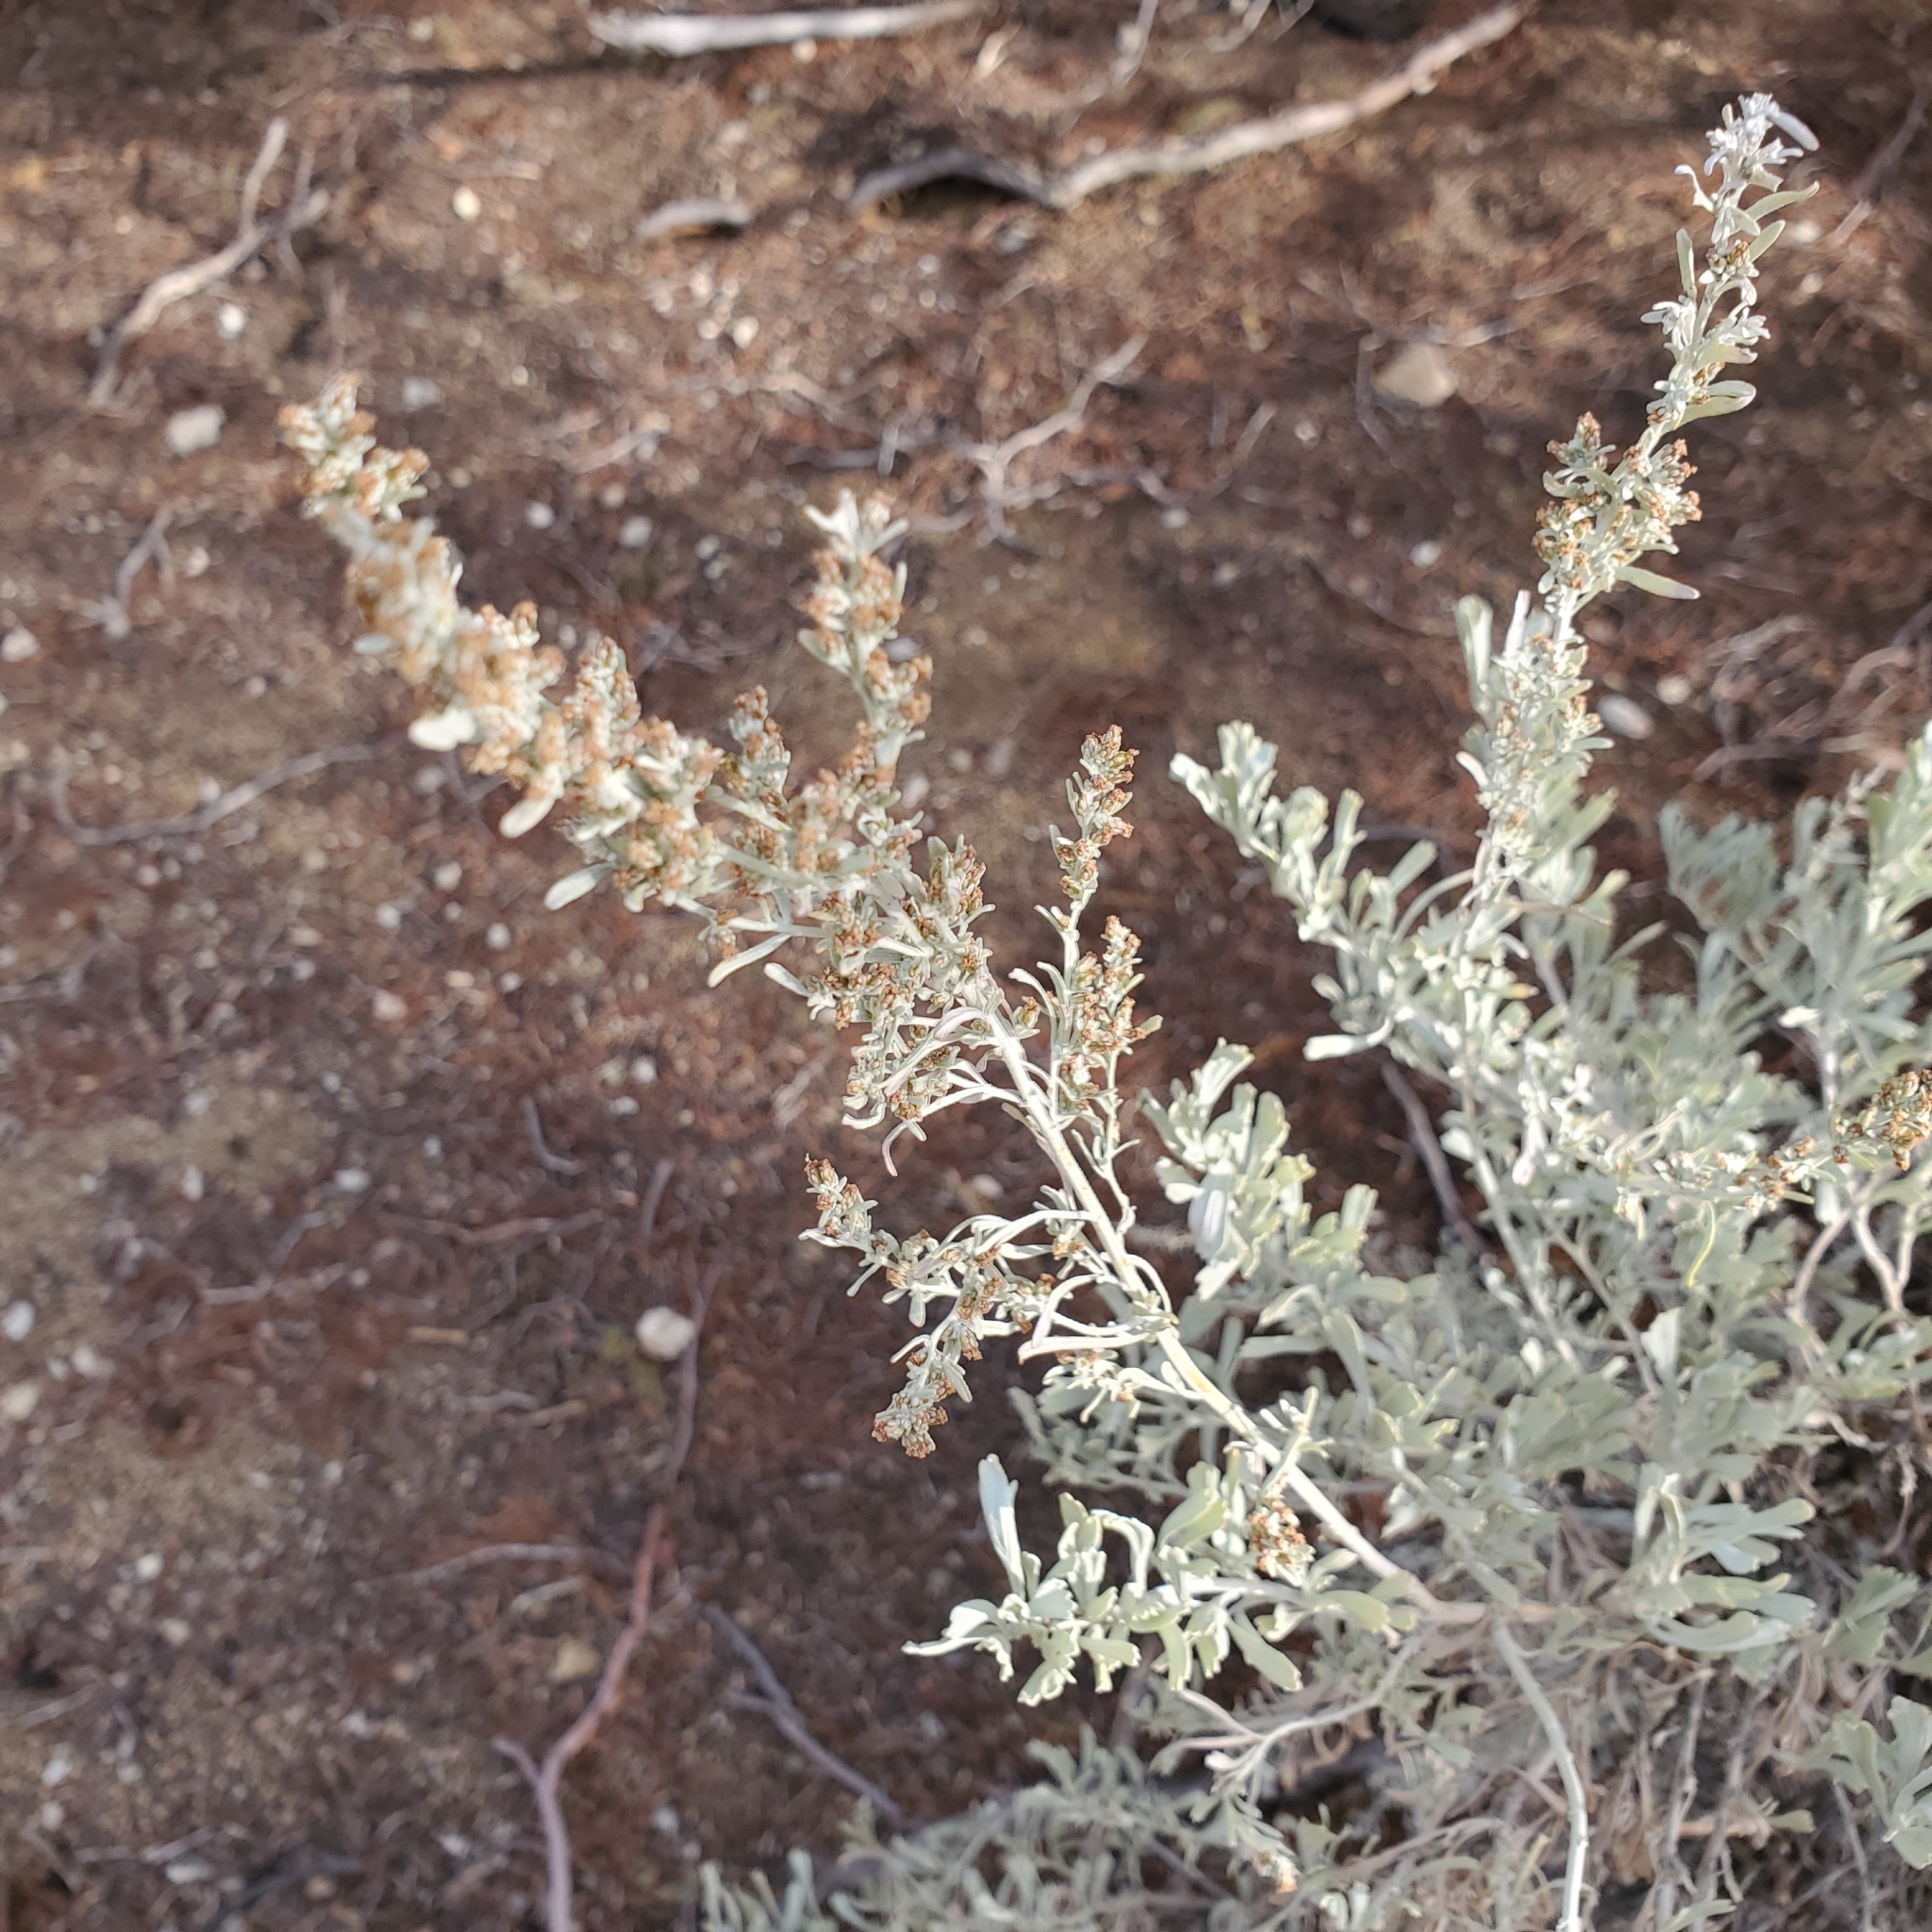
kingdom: Plantae
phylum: Tracheophyta
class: Magnoliopsida
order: Asterales
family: Asteraceae
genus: Artemisia
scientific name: Artemisia tridentata
